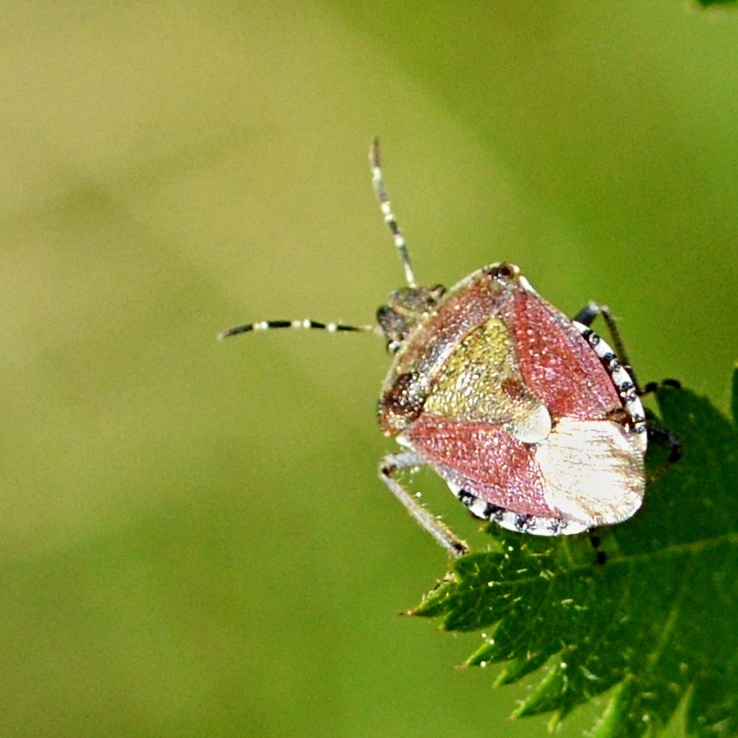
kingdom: Animalia
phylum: Arthropoda
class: Insecta
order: Hemiptera
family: Pentatomidae
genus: Dolycoris
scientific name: Dolycoris baccarum
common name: Sloe bug
